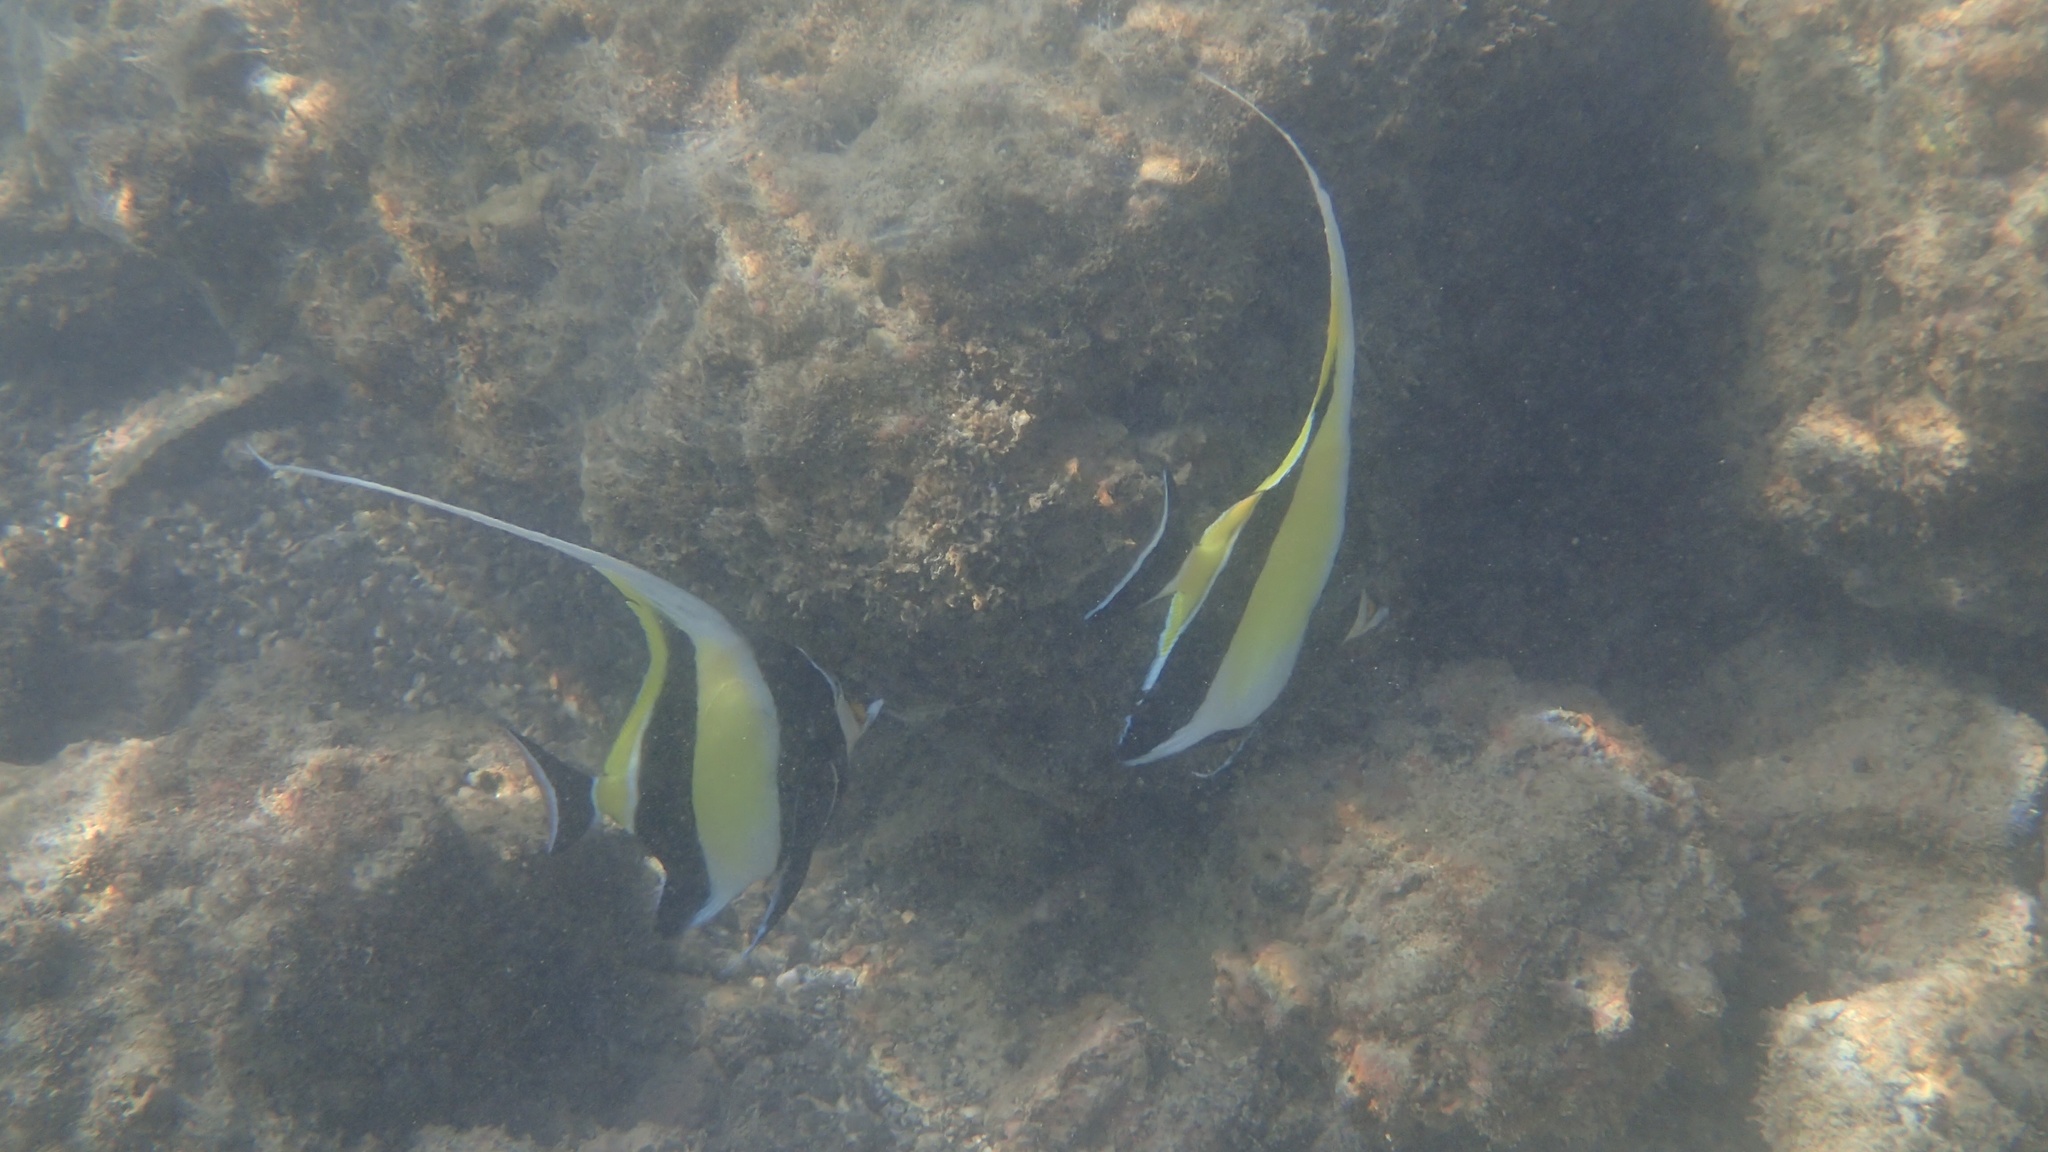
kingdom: Animalia
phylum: Chordata
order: Perciformes
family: Zanclidae
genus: Zanclus
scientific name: Zanclus cornutus
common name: Moorish idol
